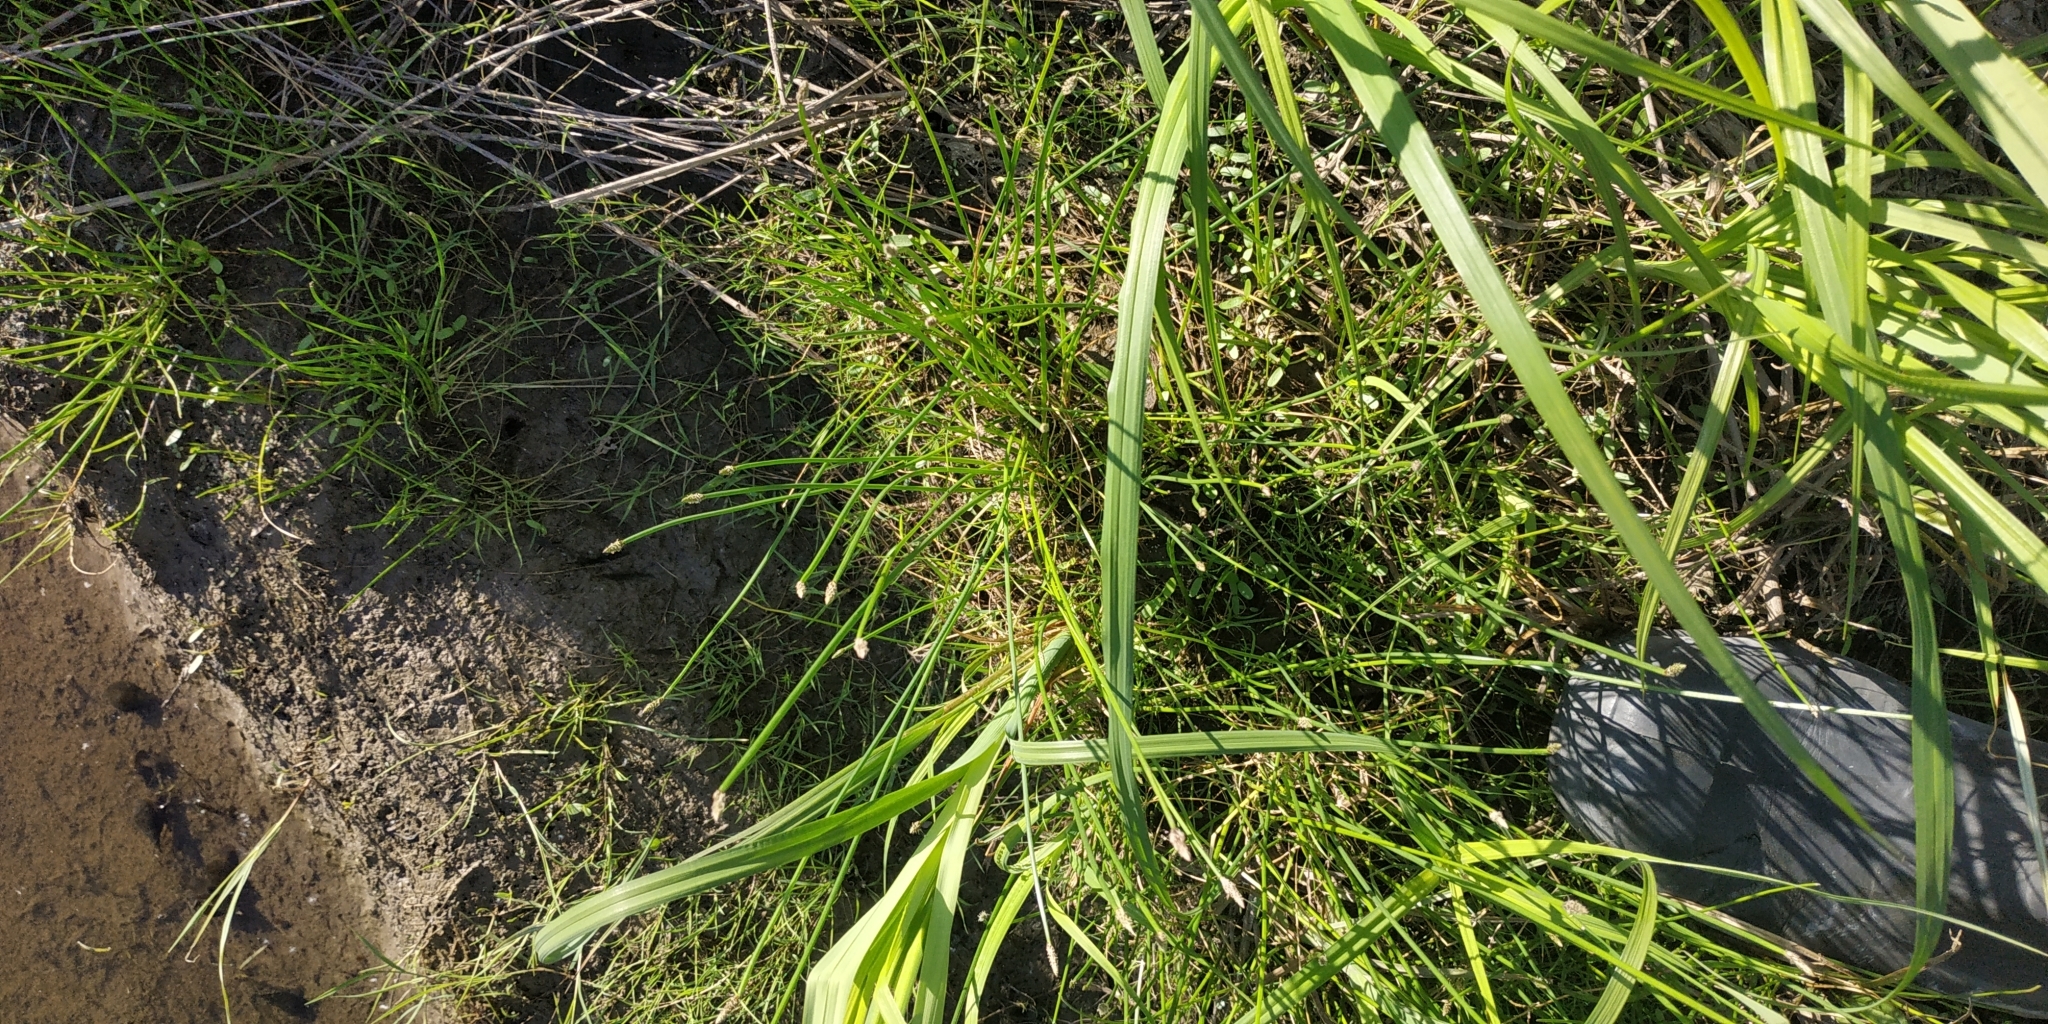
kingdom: Plantae
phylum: Tracheophyta
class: Liliopsida
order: Poales
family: Cyperaceae
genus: Eleocharis
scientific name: Eleocharis palustris
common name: Common spike-rush
